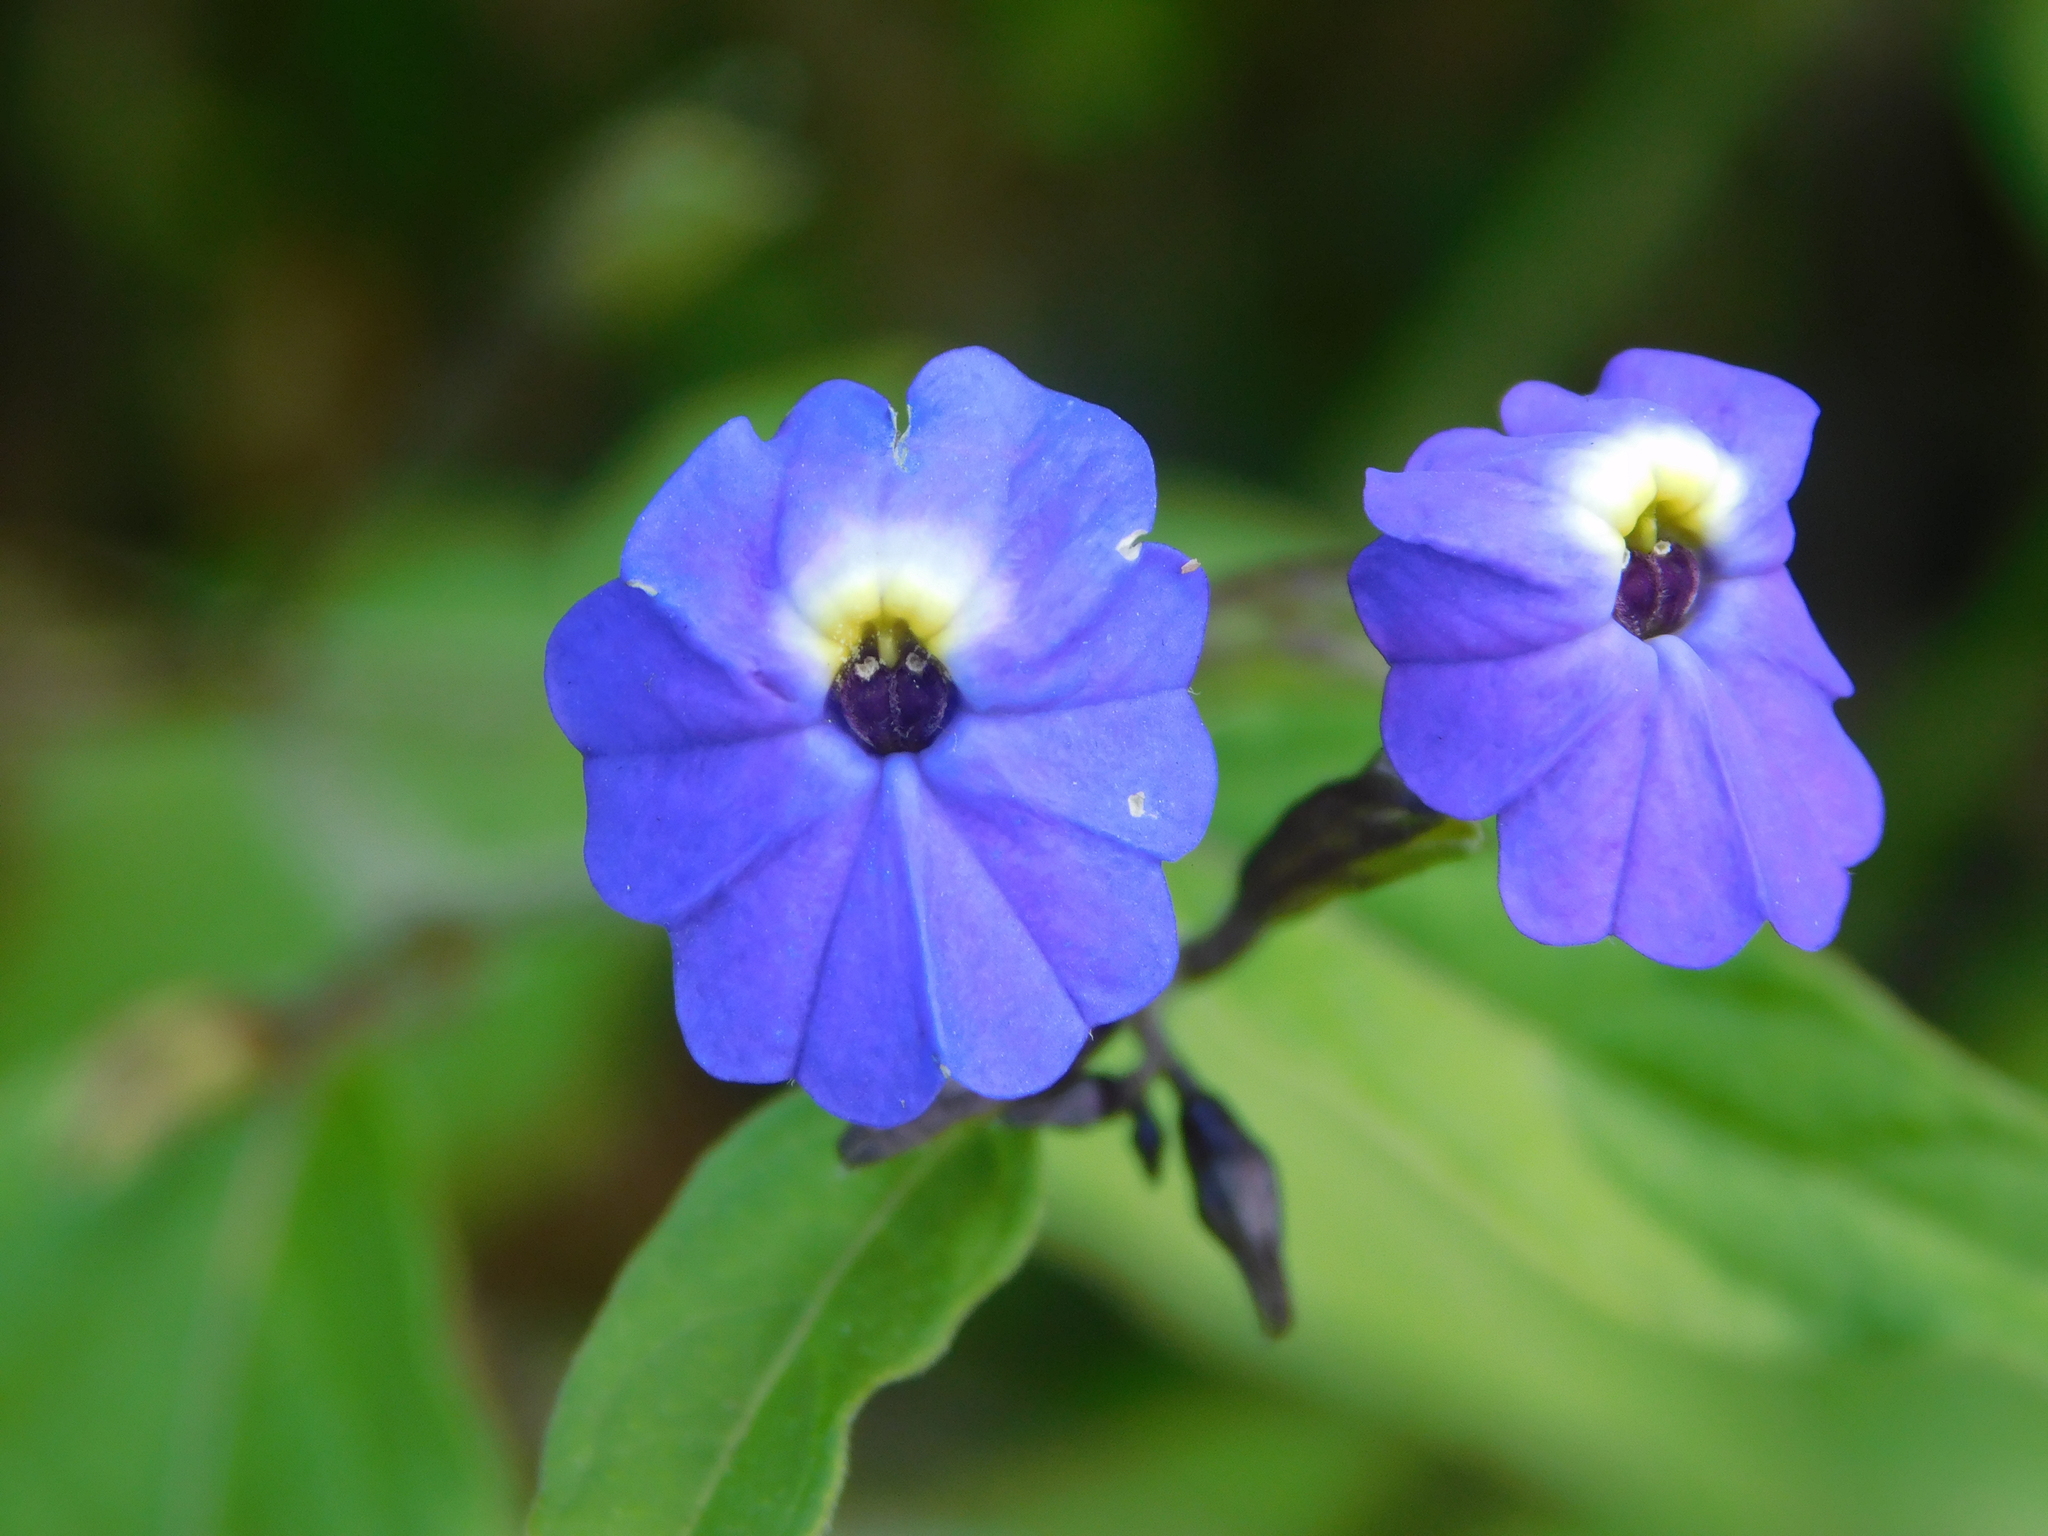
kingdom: Plantae
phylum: Tracheophyta
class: Magnoliopsida
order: Solanales
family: Solanaceae
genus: Browallia
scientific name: Browallia americana
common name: Jamaican forget-me-not
